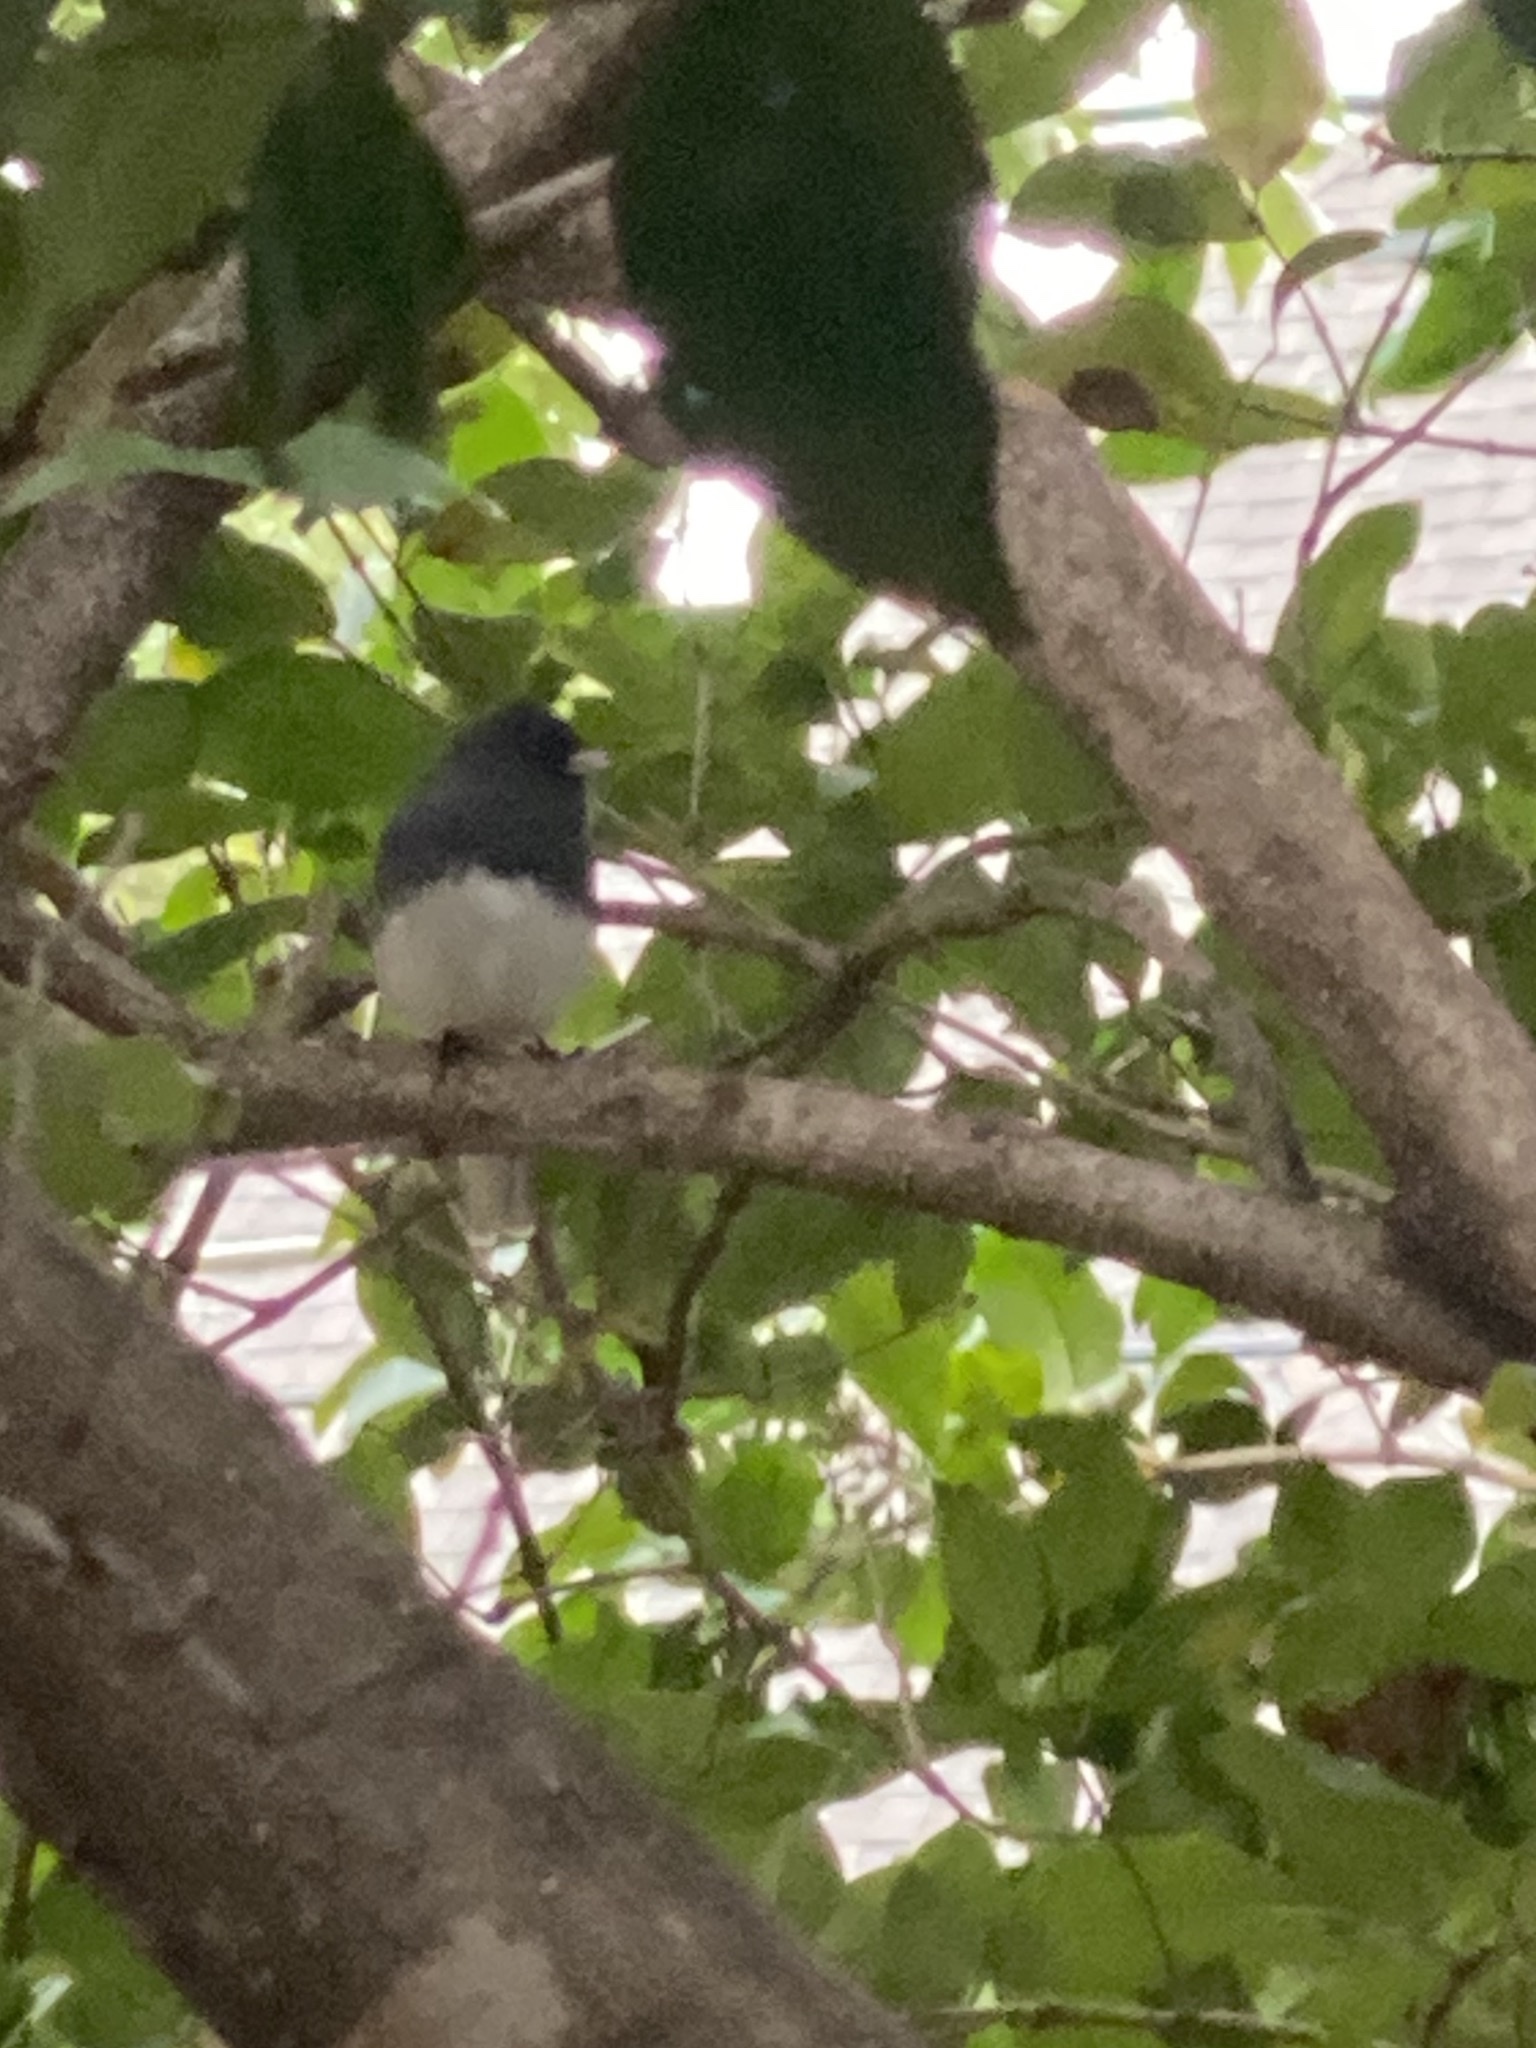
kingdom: Animalia
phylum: Chordata
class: Aves
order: Passeriformes
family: Passerellidae
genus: Junco
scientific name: Junco hyemalis
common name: Dark-eyed junco
